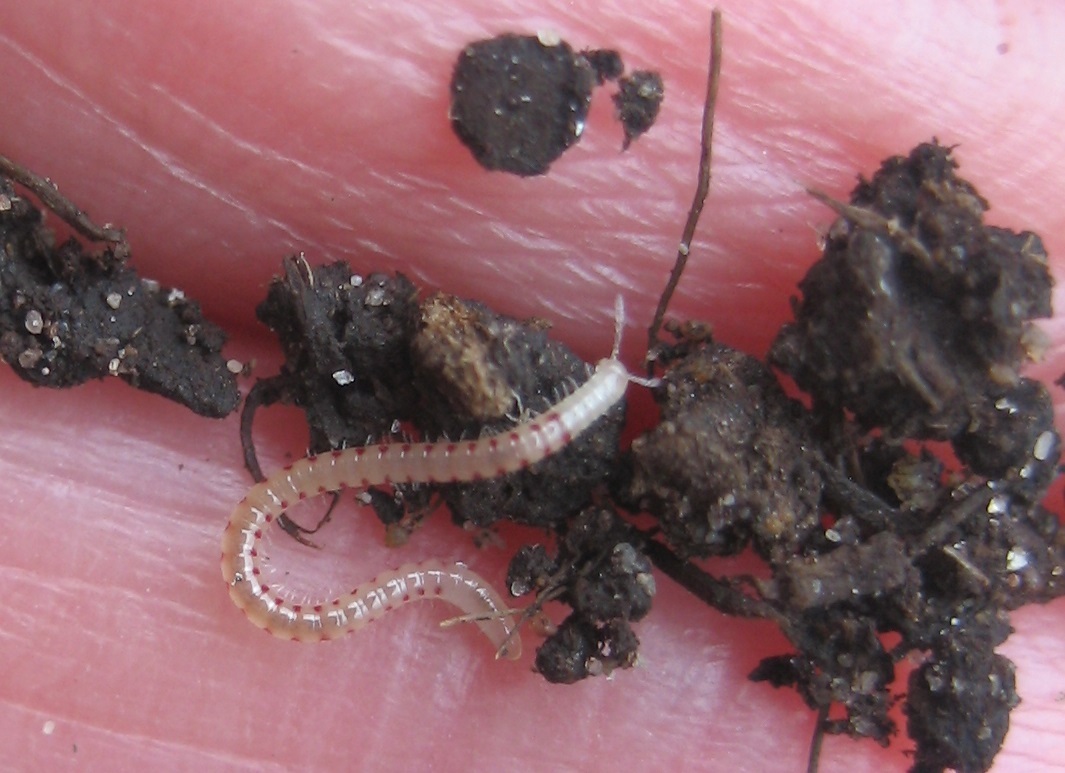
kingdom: Animalia
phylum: Arthropoda
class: Diplopoda
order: Julida
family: Blaniulidae
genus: Blaniulus
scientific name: Blaniulus guttulatus
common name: Spotted snake millipede
